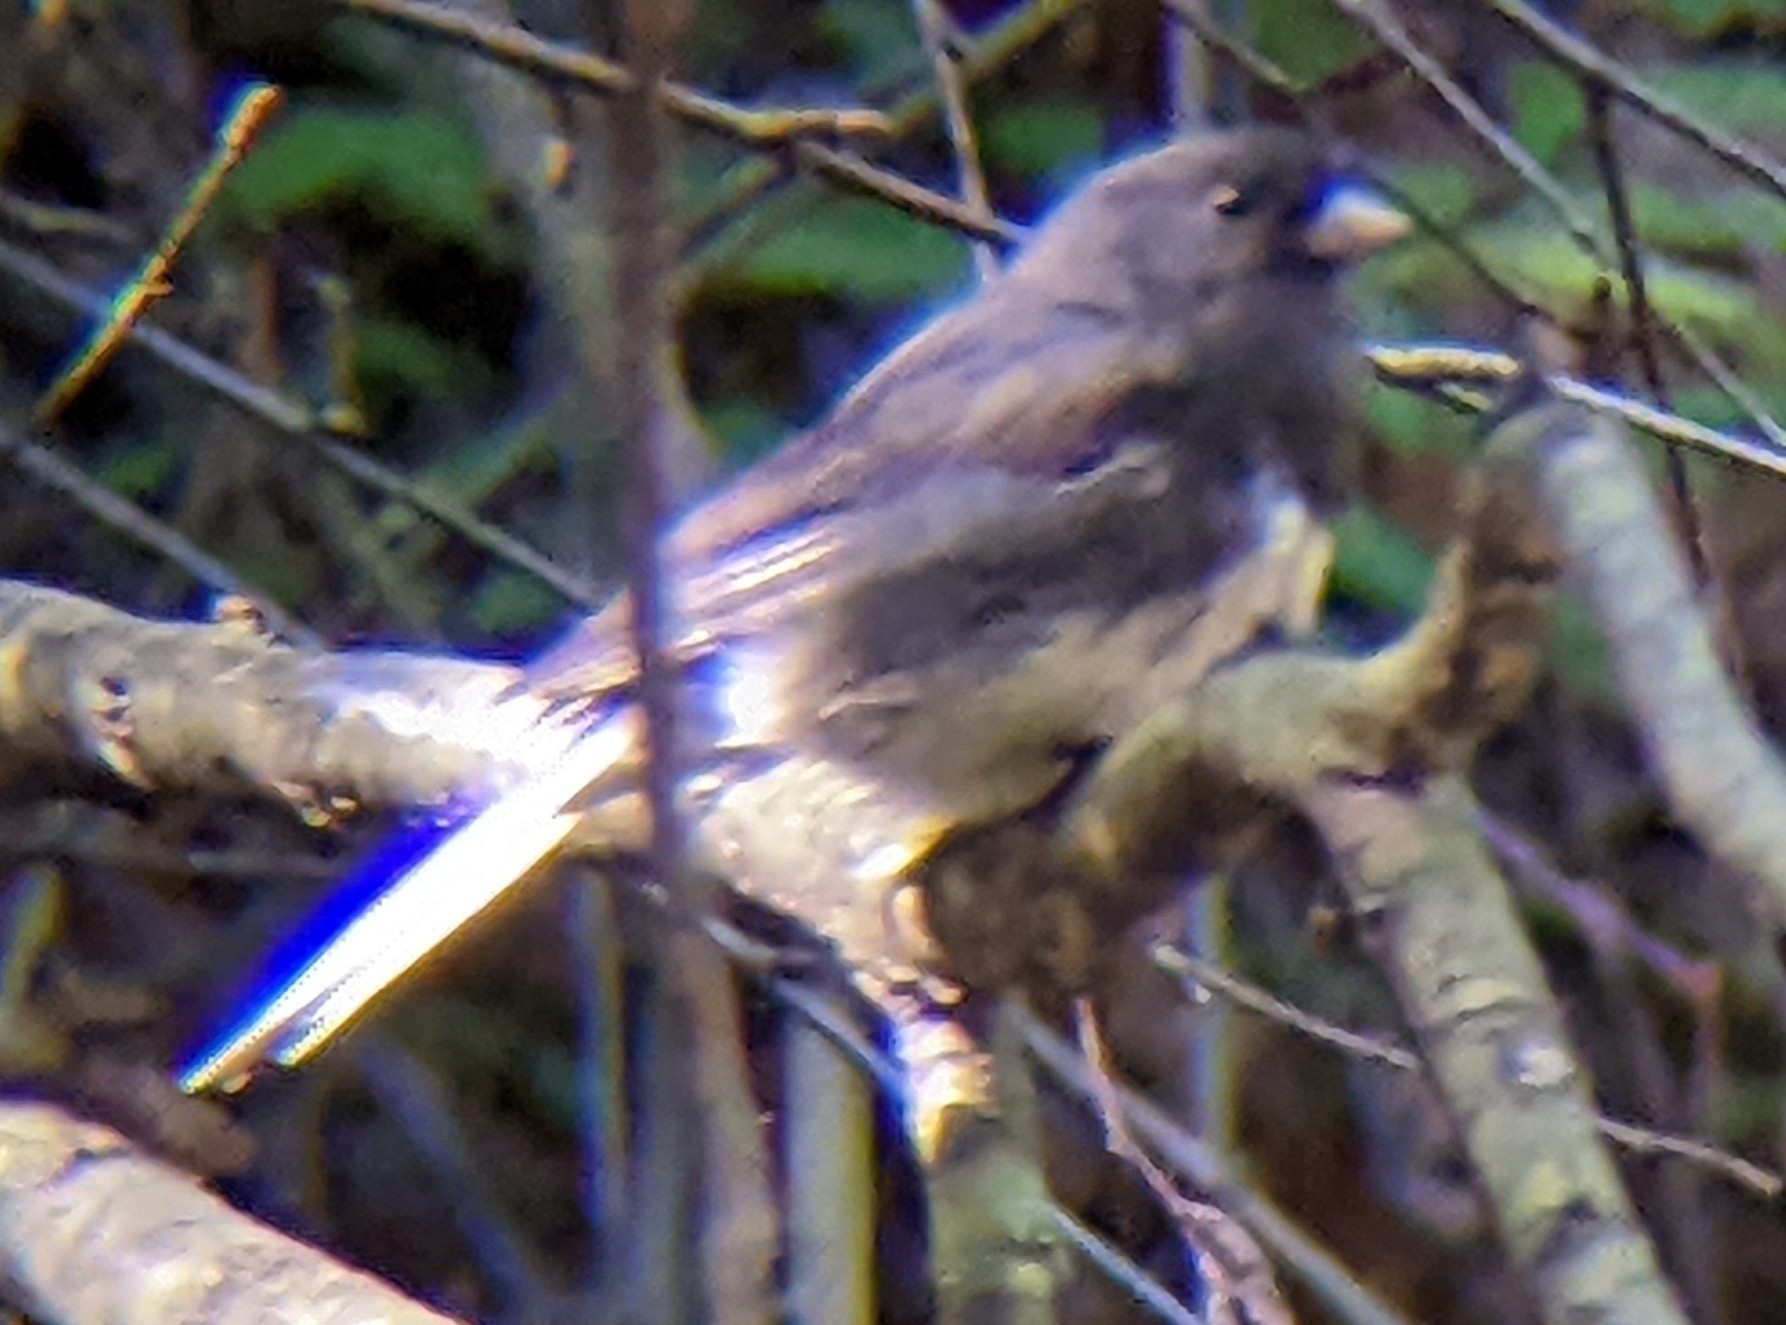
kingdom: Animalia
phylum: Chordata
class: Aves
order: Passeriformes
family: Passerellidae
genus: Junco
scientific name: Junco hyemalis
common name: Dark-eyed junco
